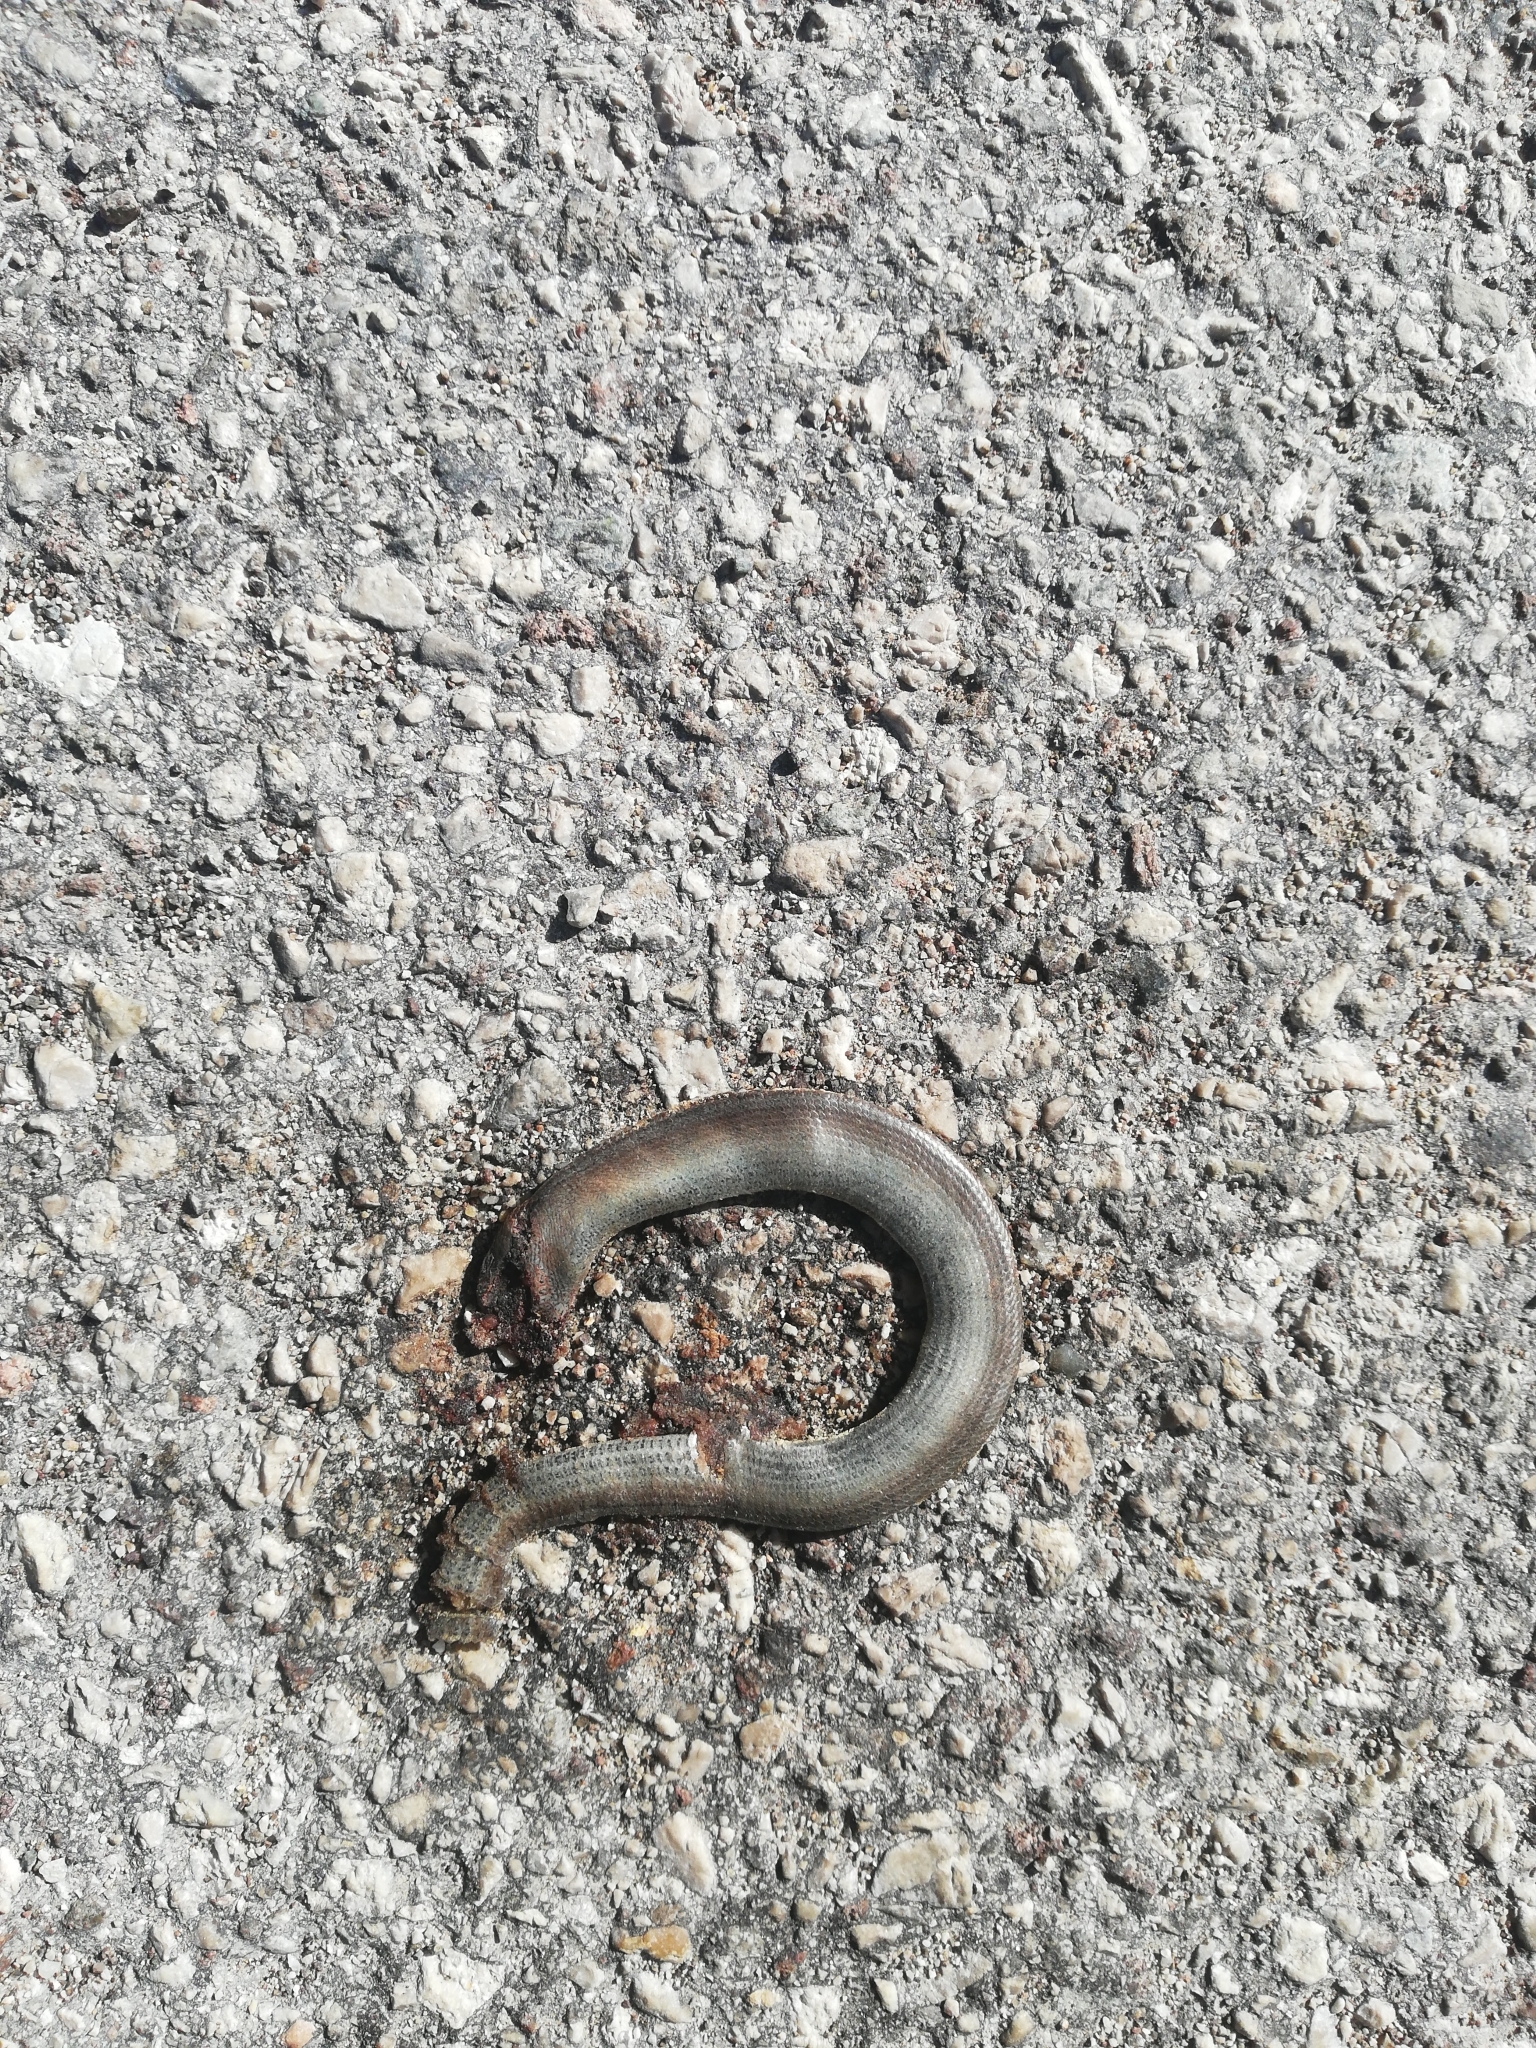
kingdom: Animalia
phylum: Chordata
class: Squamata
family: Anguidae
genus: Anguis
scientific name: Anguis veronensis
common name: Italian slow worm
